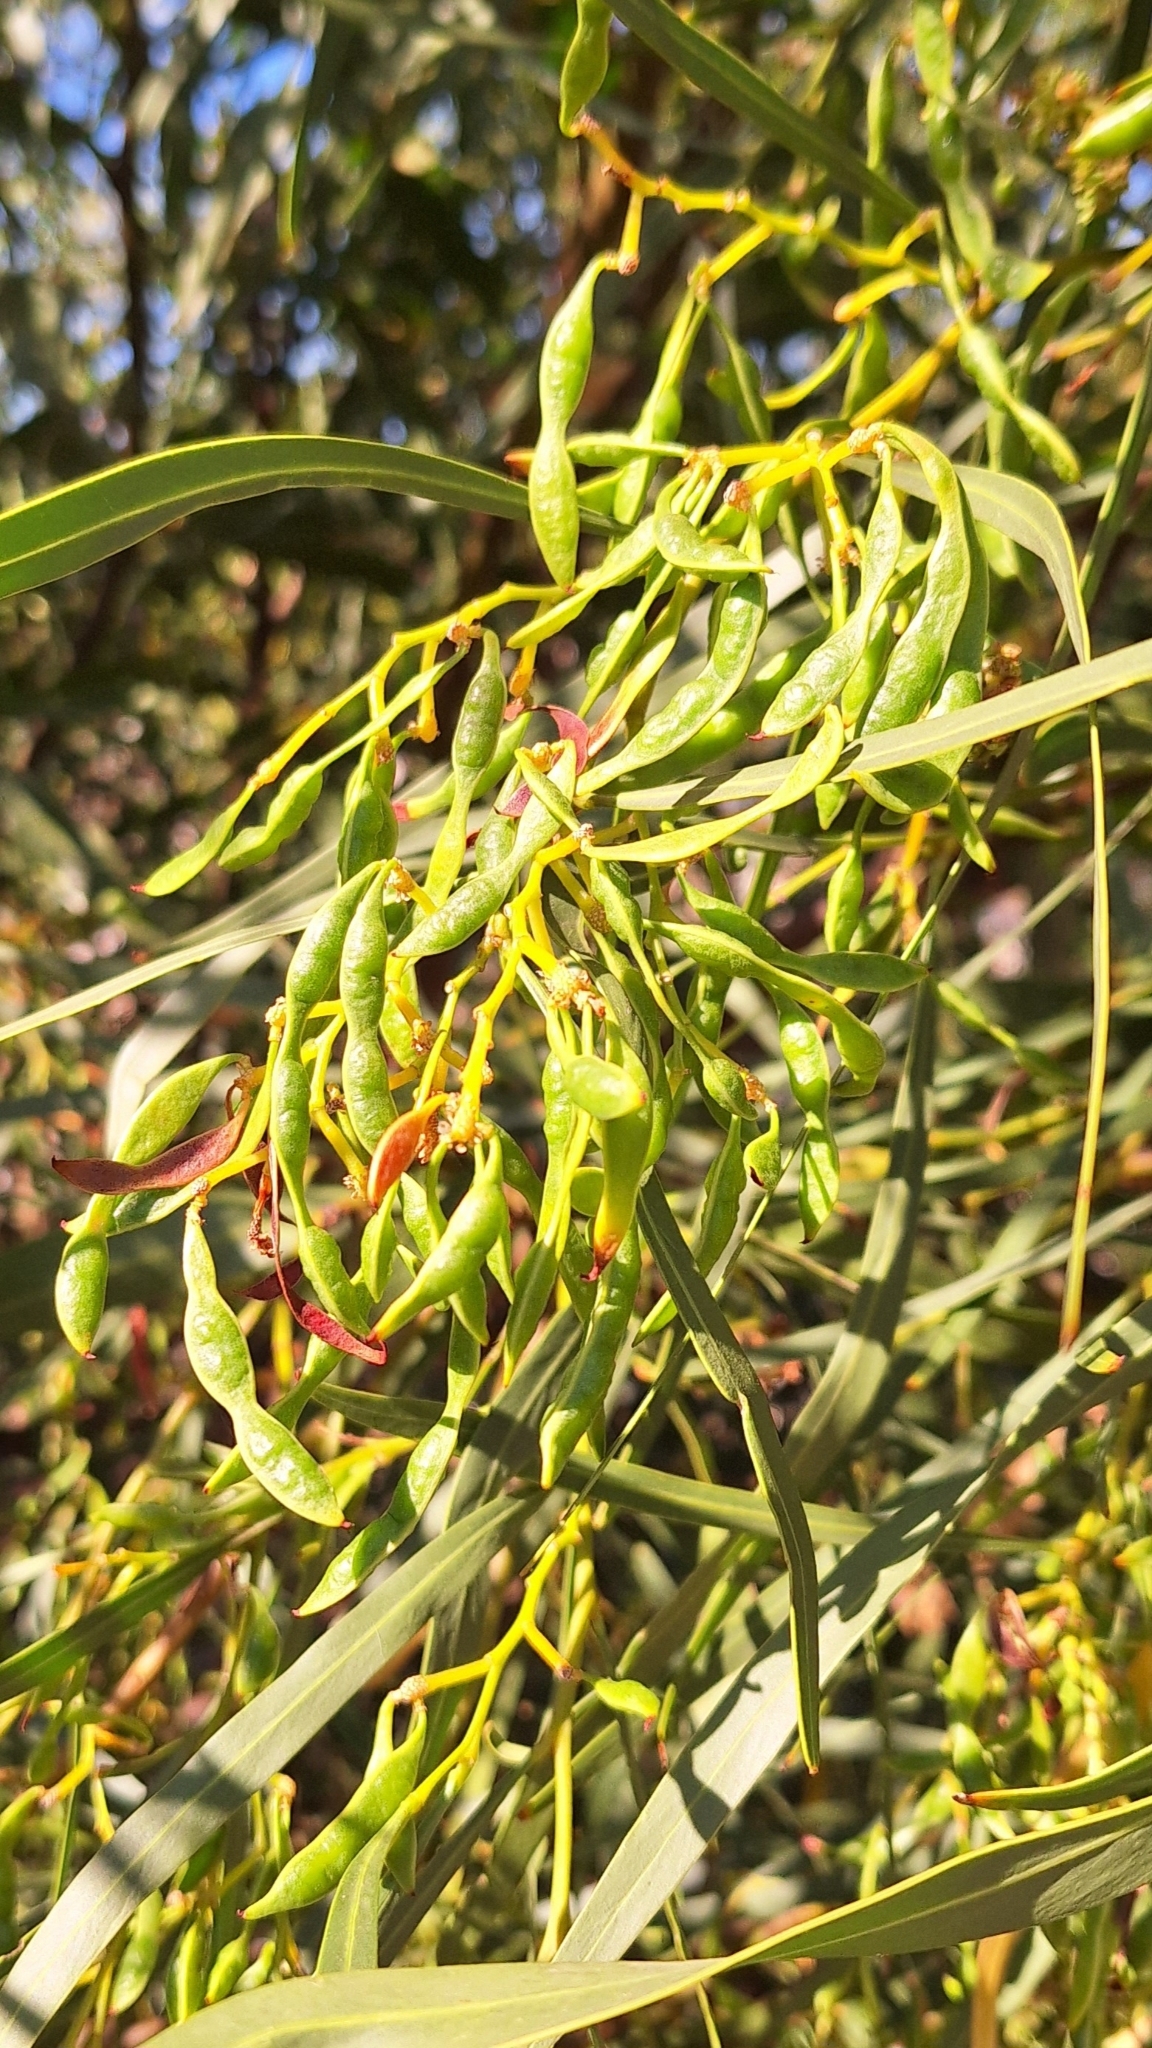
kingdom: Plantae
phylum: Tracheophyta
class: Magnoliopsida
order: Fabales
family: Fabaceae
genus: Acacia
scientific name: Acacia saligna
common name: Orange wattle
